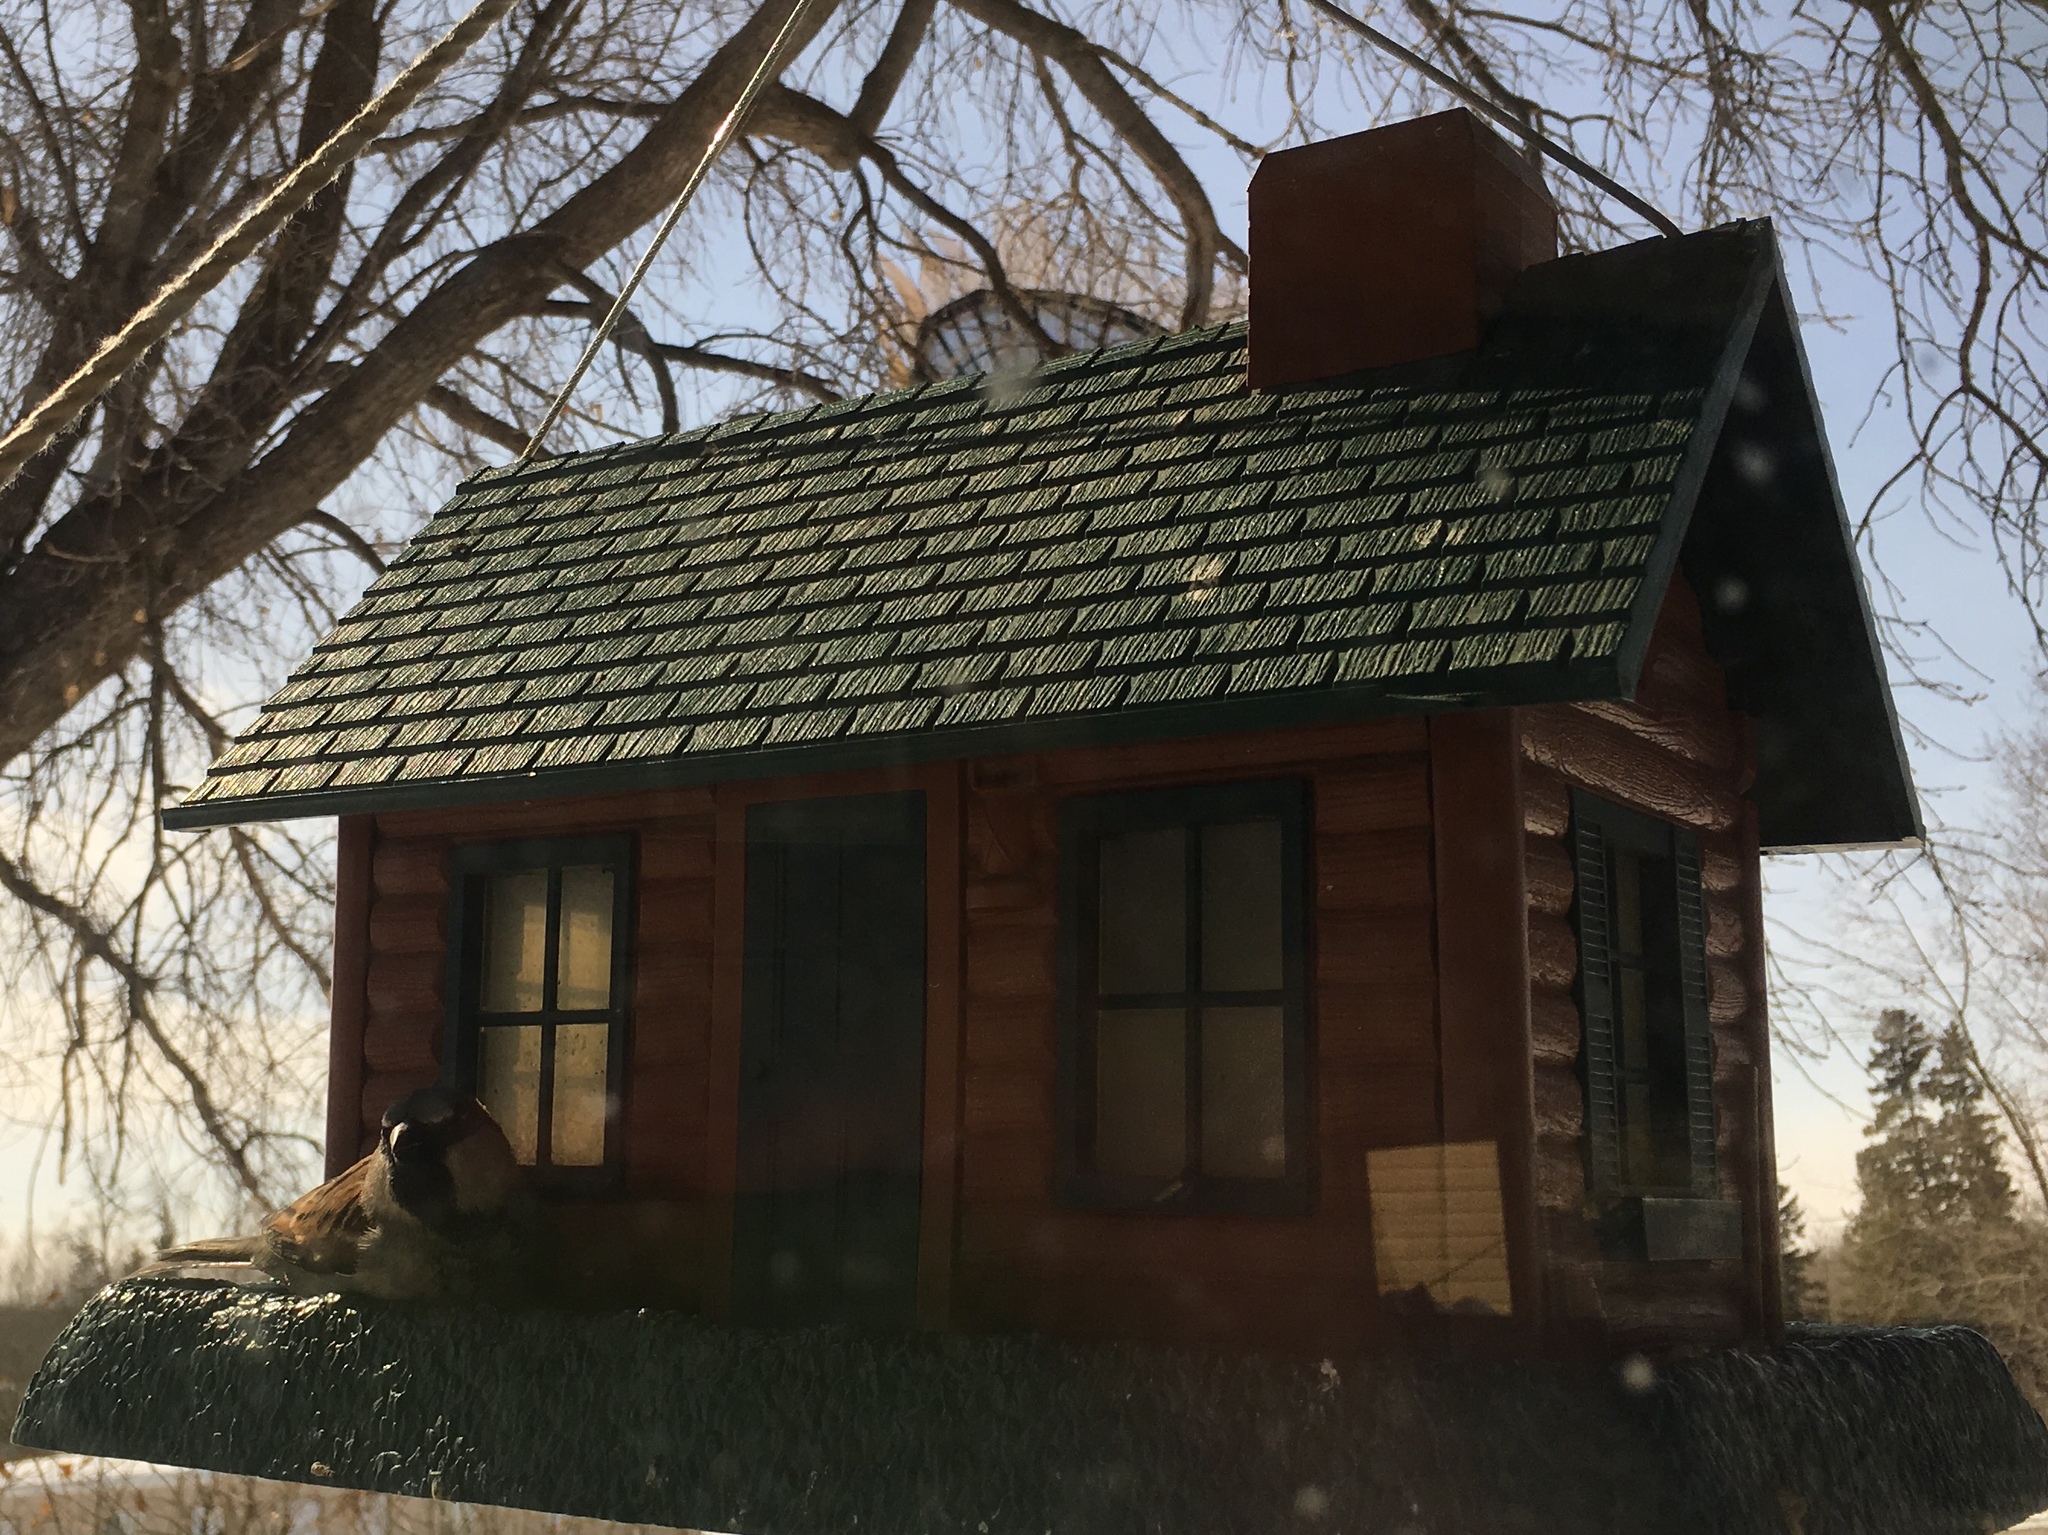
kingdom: Animalia
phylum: Chordata
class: Aves
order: Passeriformes
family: Passeridae
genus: Passer
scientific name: Passer domesticus
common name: House sparrow
